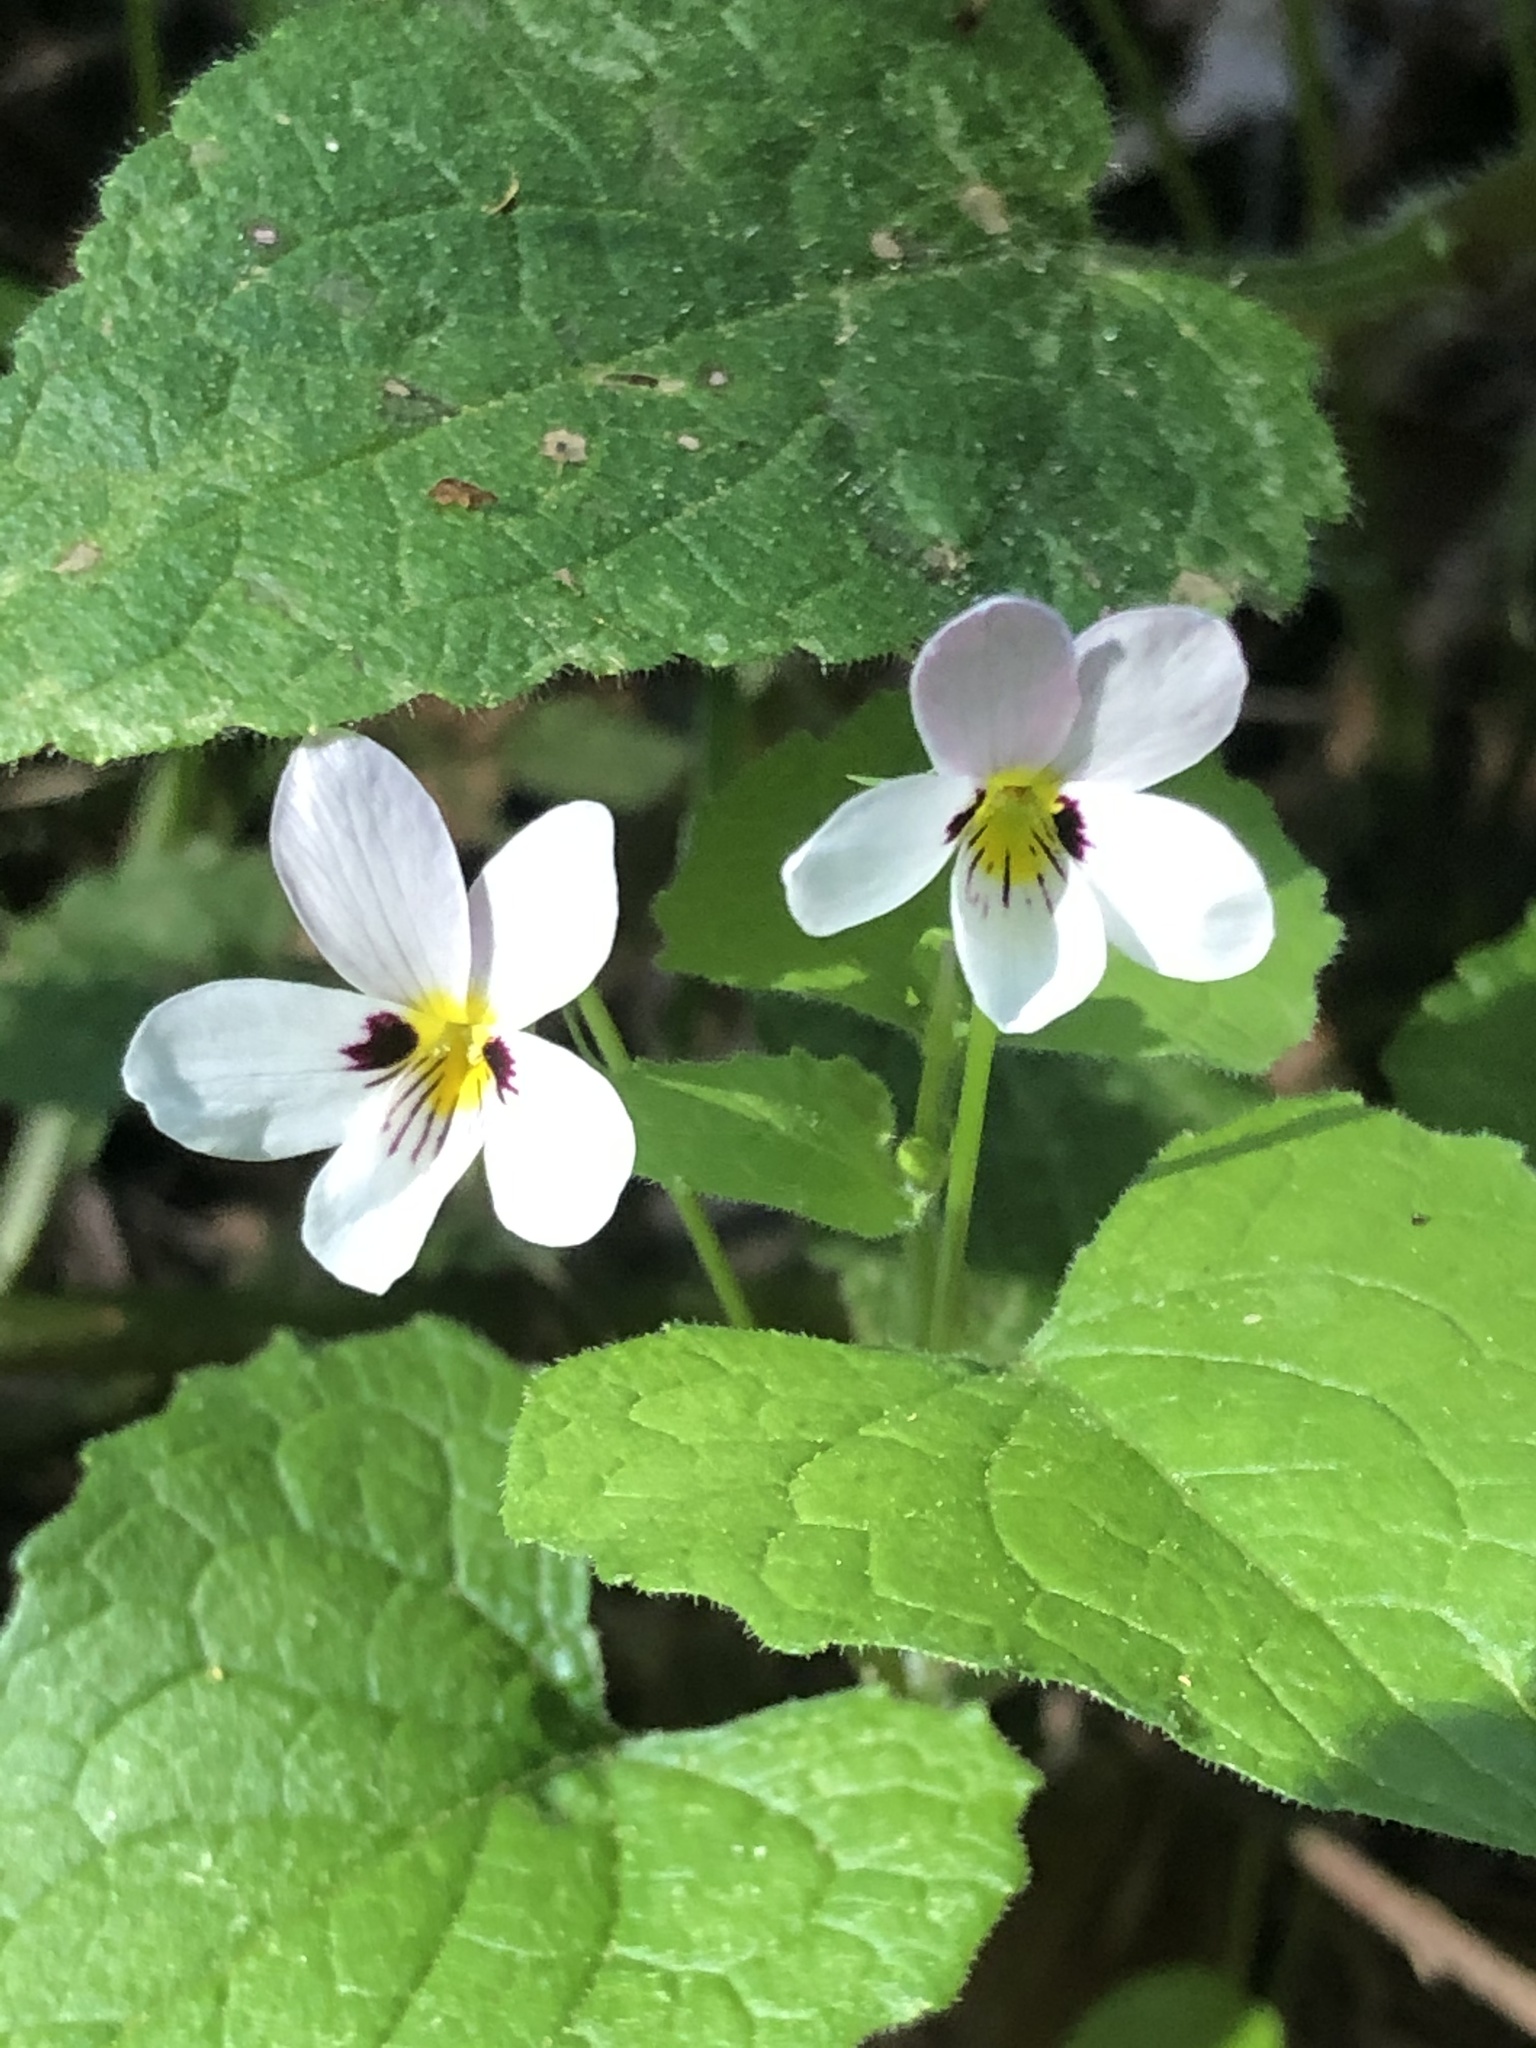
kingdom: Plantae
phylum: Tracheophyta
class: Magnoliopsida
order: Malpighiales
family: Violaceae
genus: Viola
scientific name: Viola ocellata
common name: Western heart's ease
